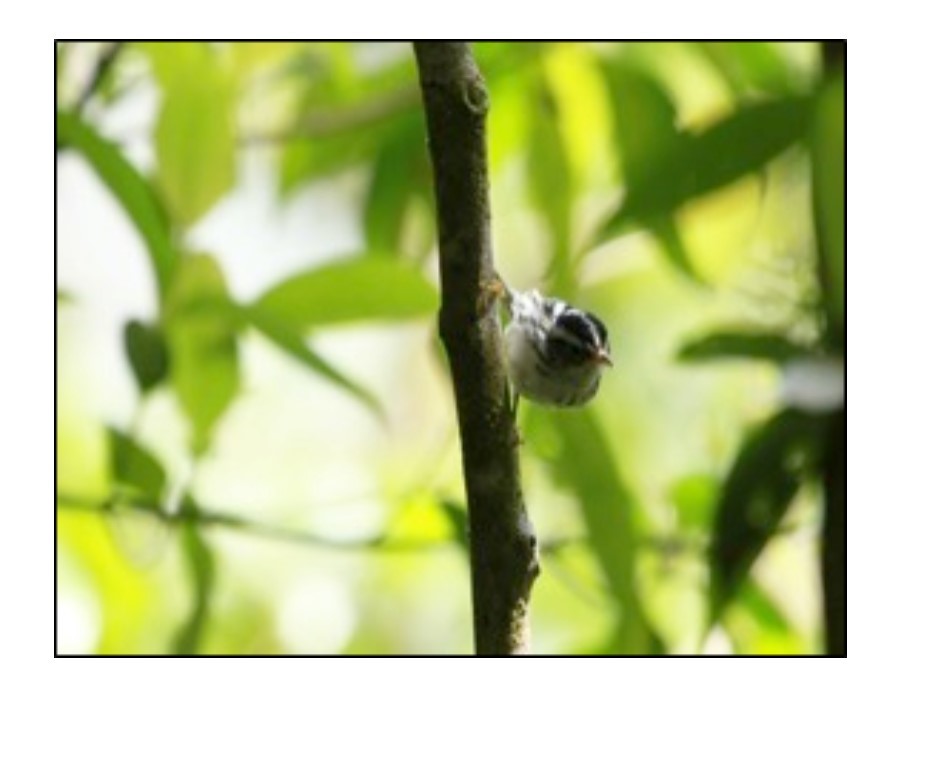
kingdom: Animalia
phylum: Chordata
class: Aves
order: Passeriformes
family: Parulidae
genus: Mniotilta
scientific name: Mniotilta varia
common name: Black-and-white warbler
